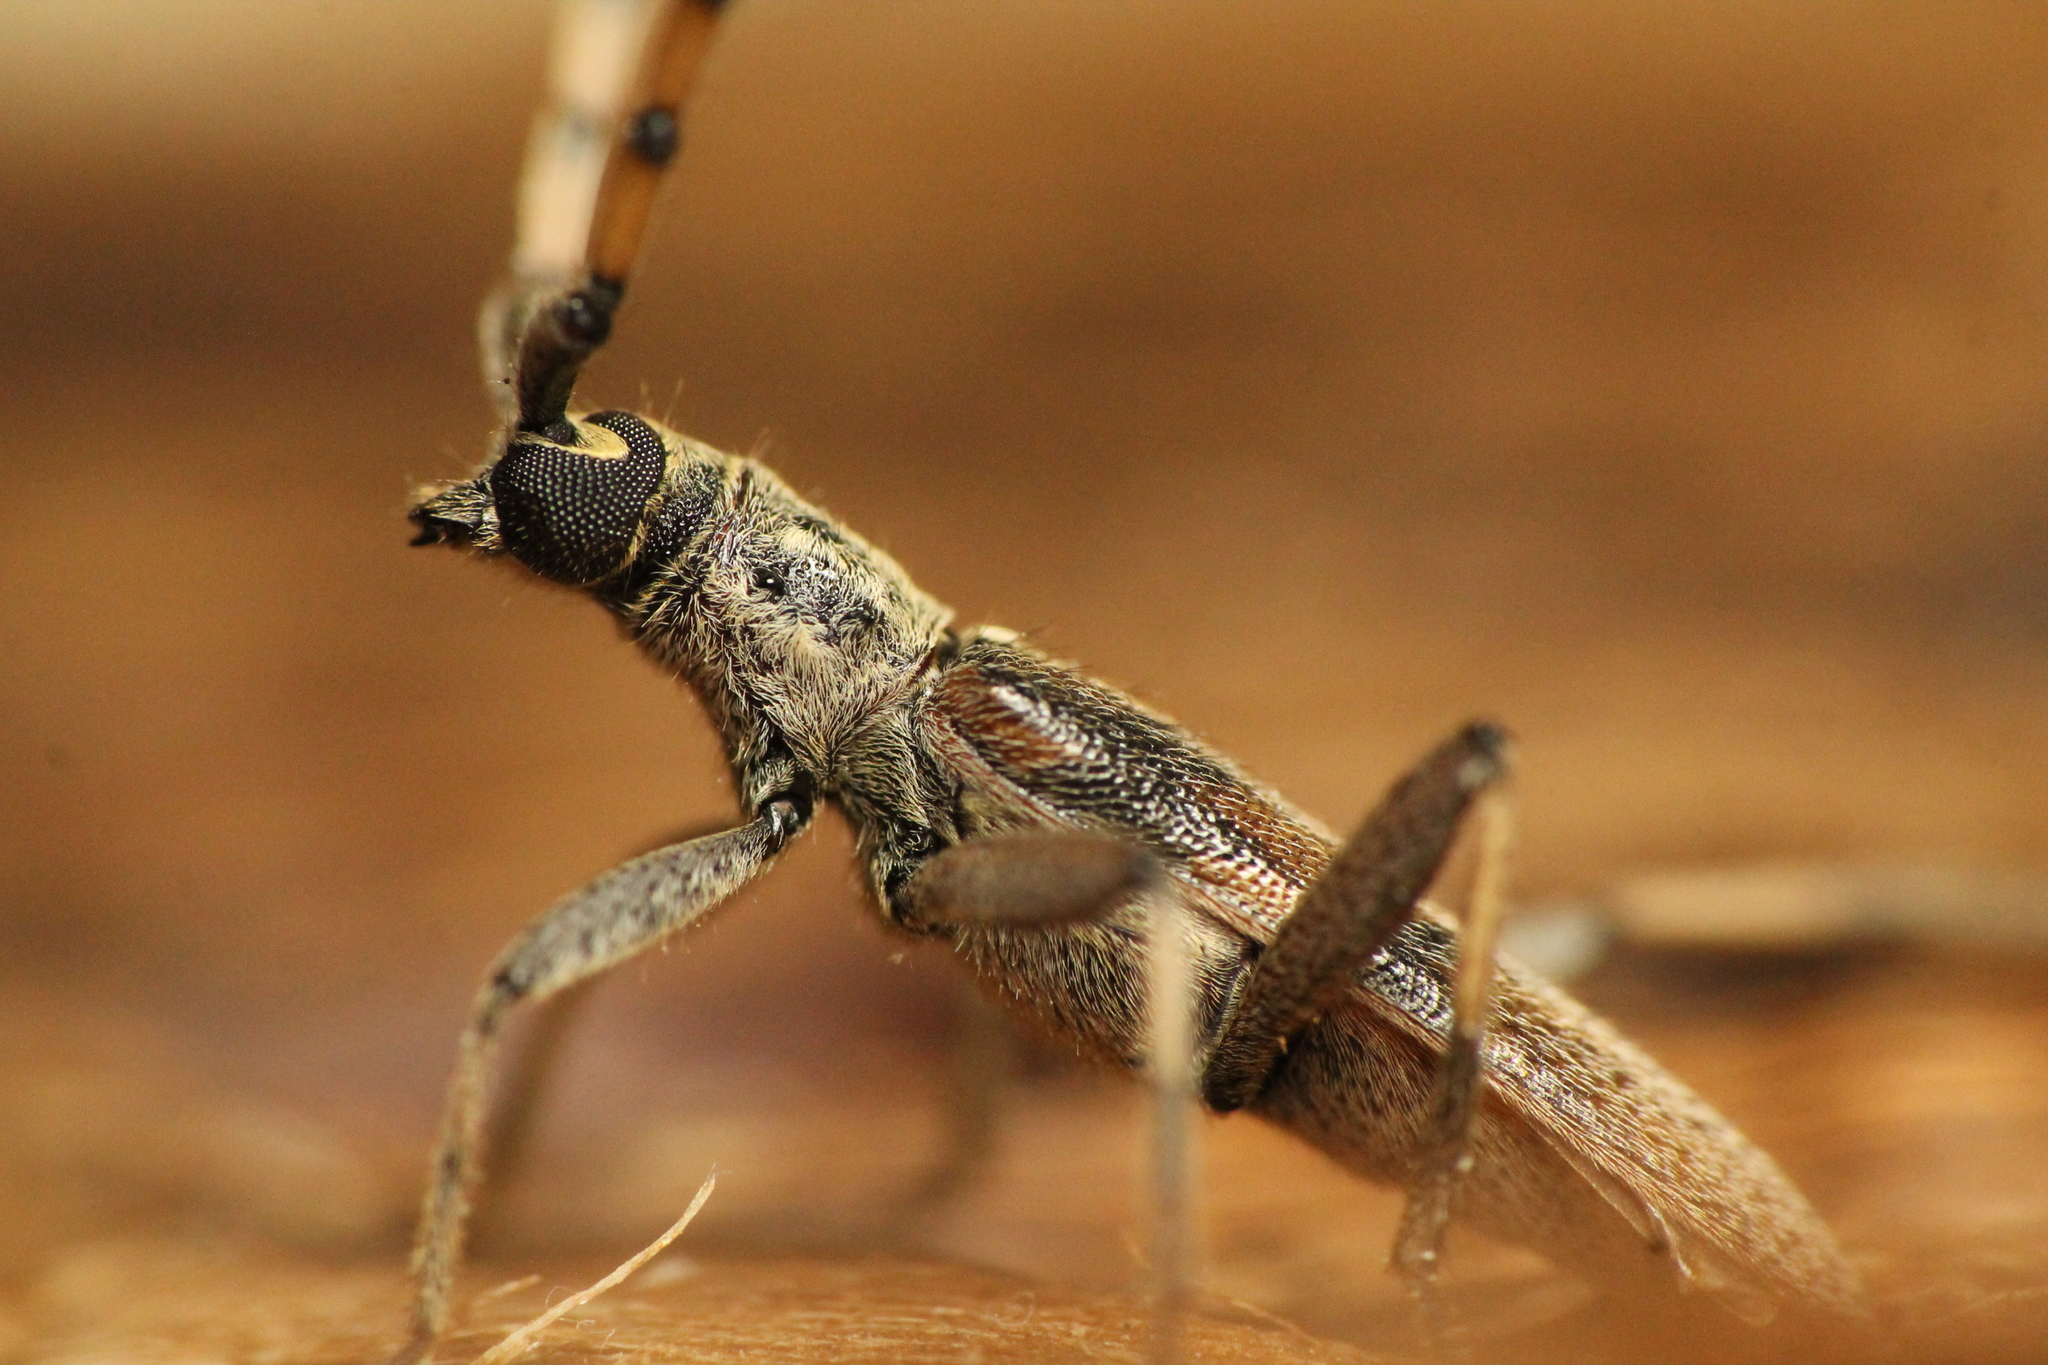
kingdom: Animalia
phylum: Arthropoda
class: Insecta
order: Coleoptera
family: Cerambycidae
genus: Didymocantha
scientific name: Didymocantha obliqua
